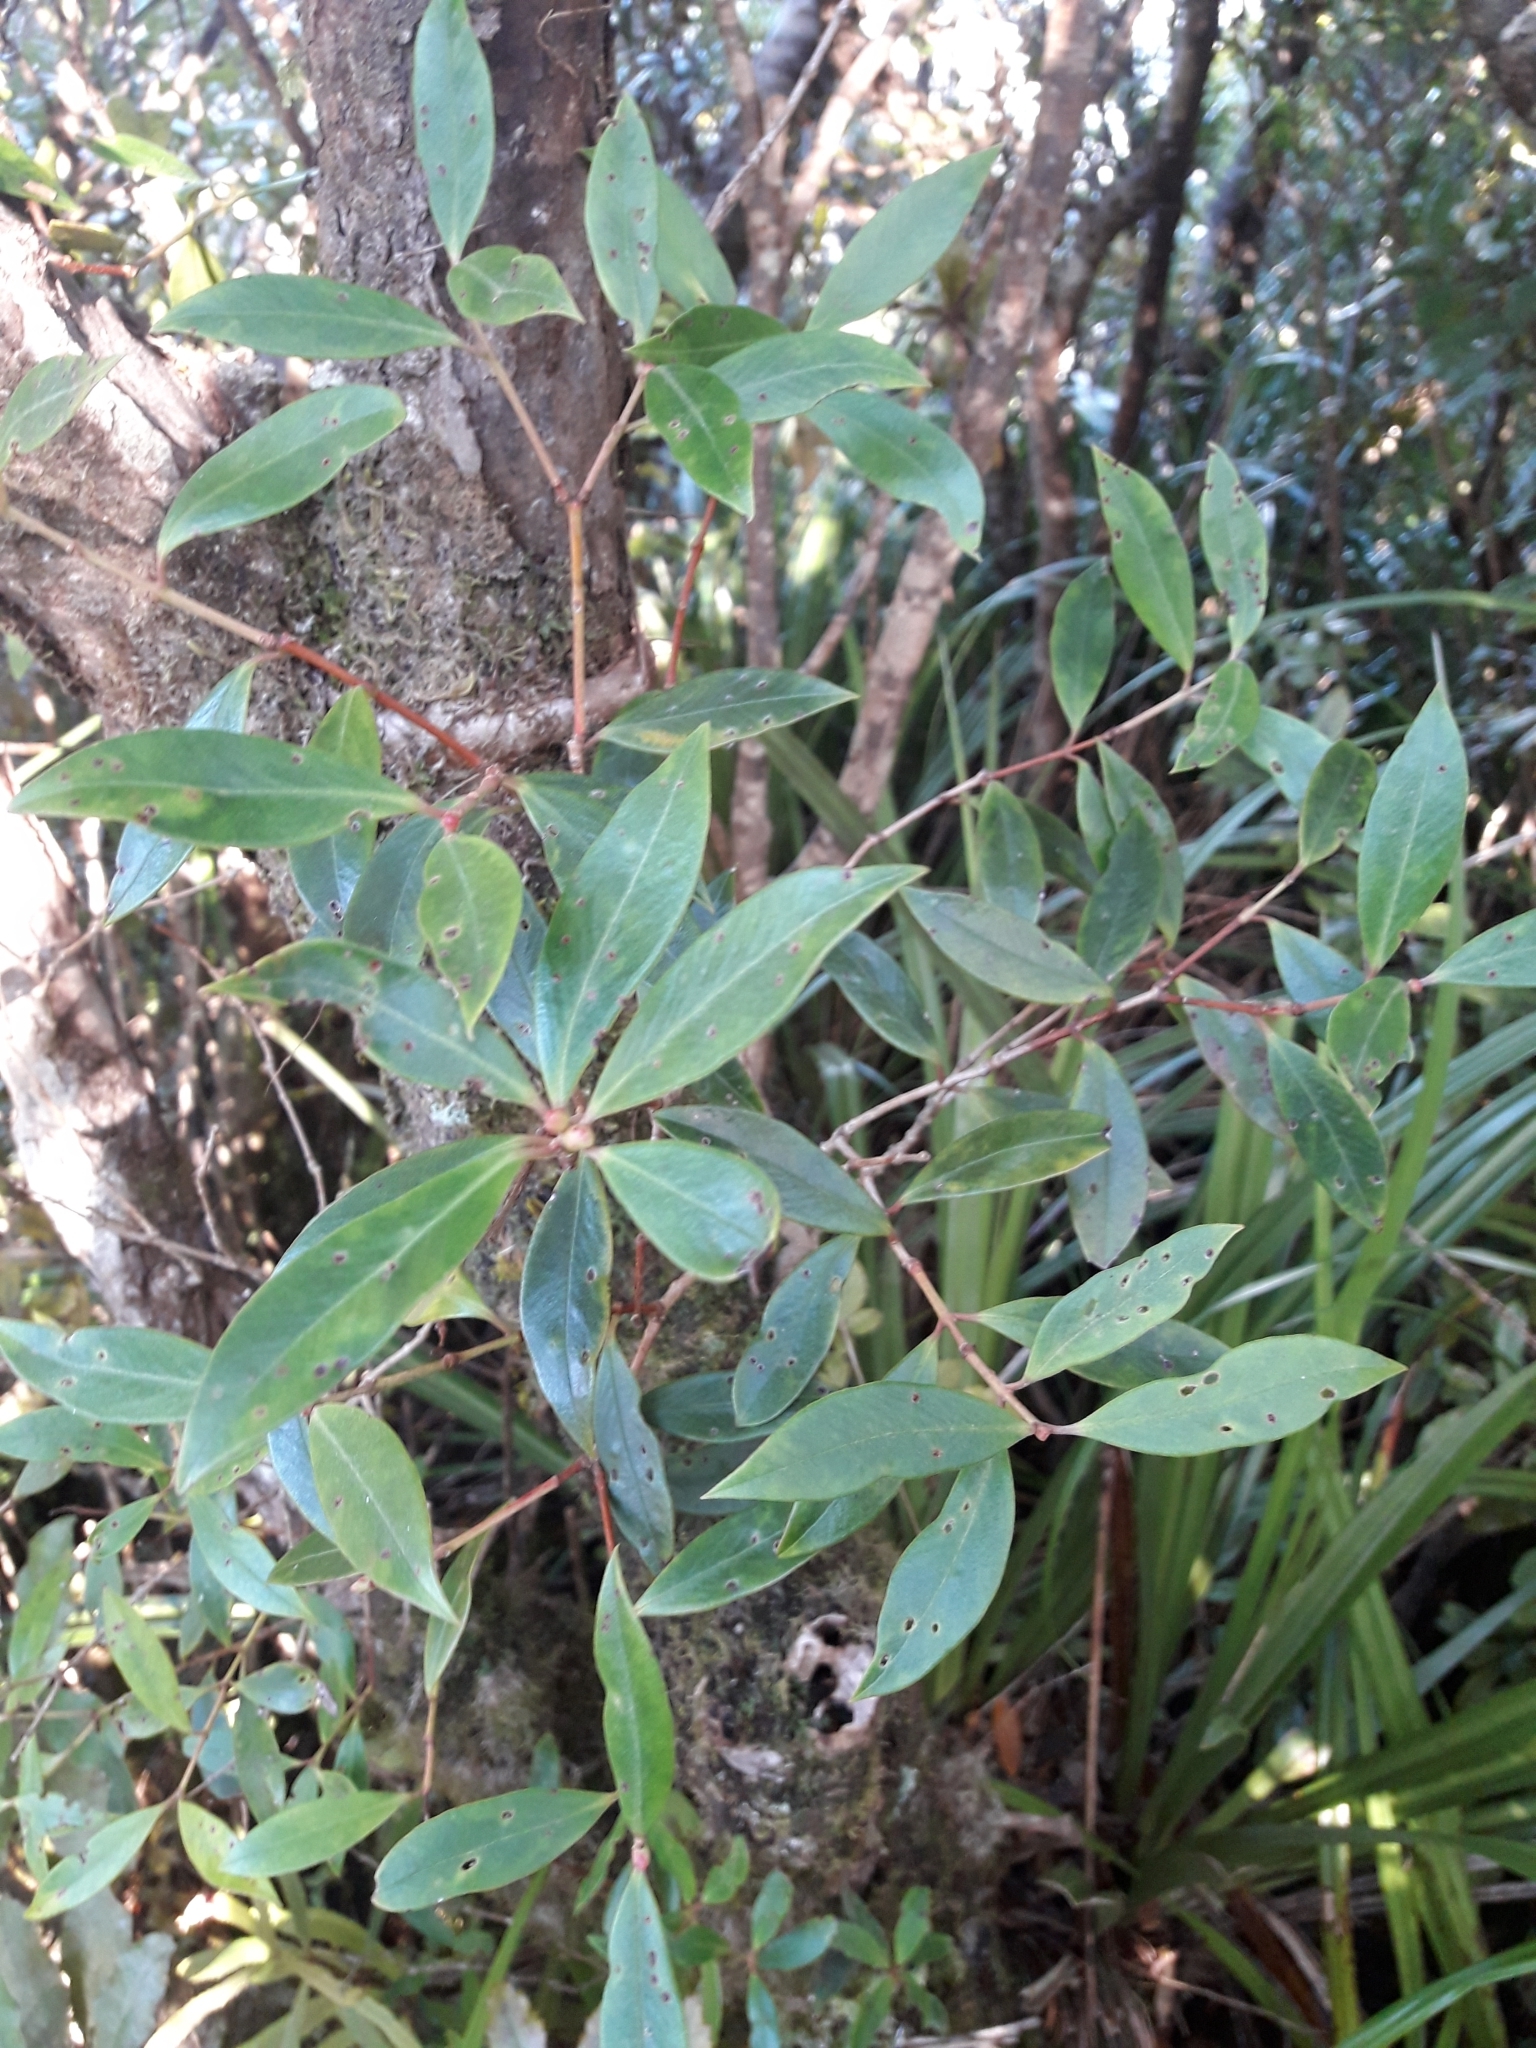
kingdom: Plantae
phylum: Tracheophyta
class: Magnoliopsida
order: Myrtales
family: Myrtaceae
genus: Metrosideros
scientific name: Metrosideros umbellata
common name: Southern rata
